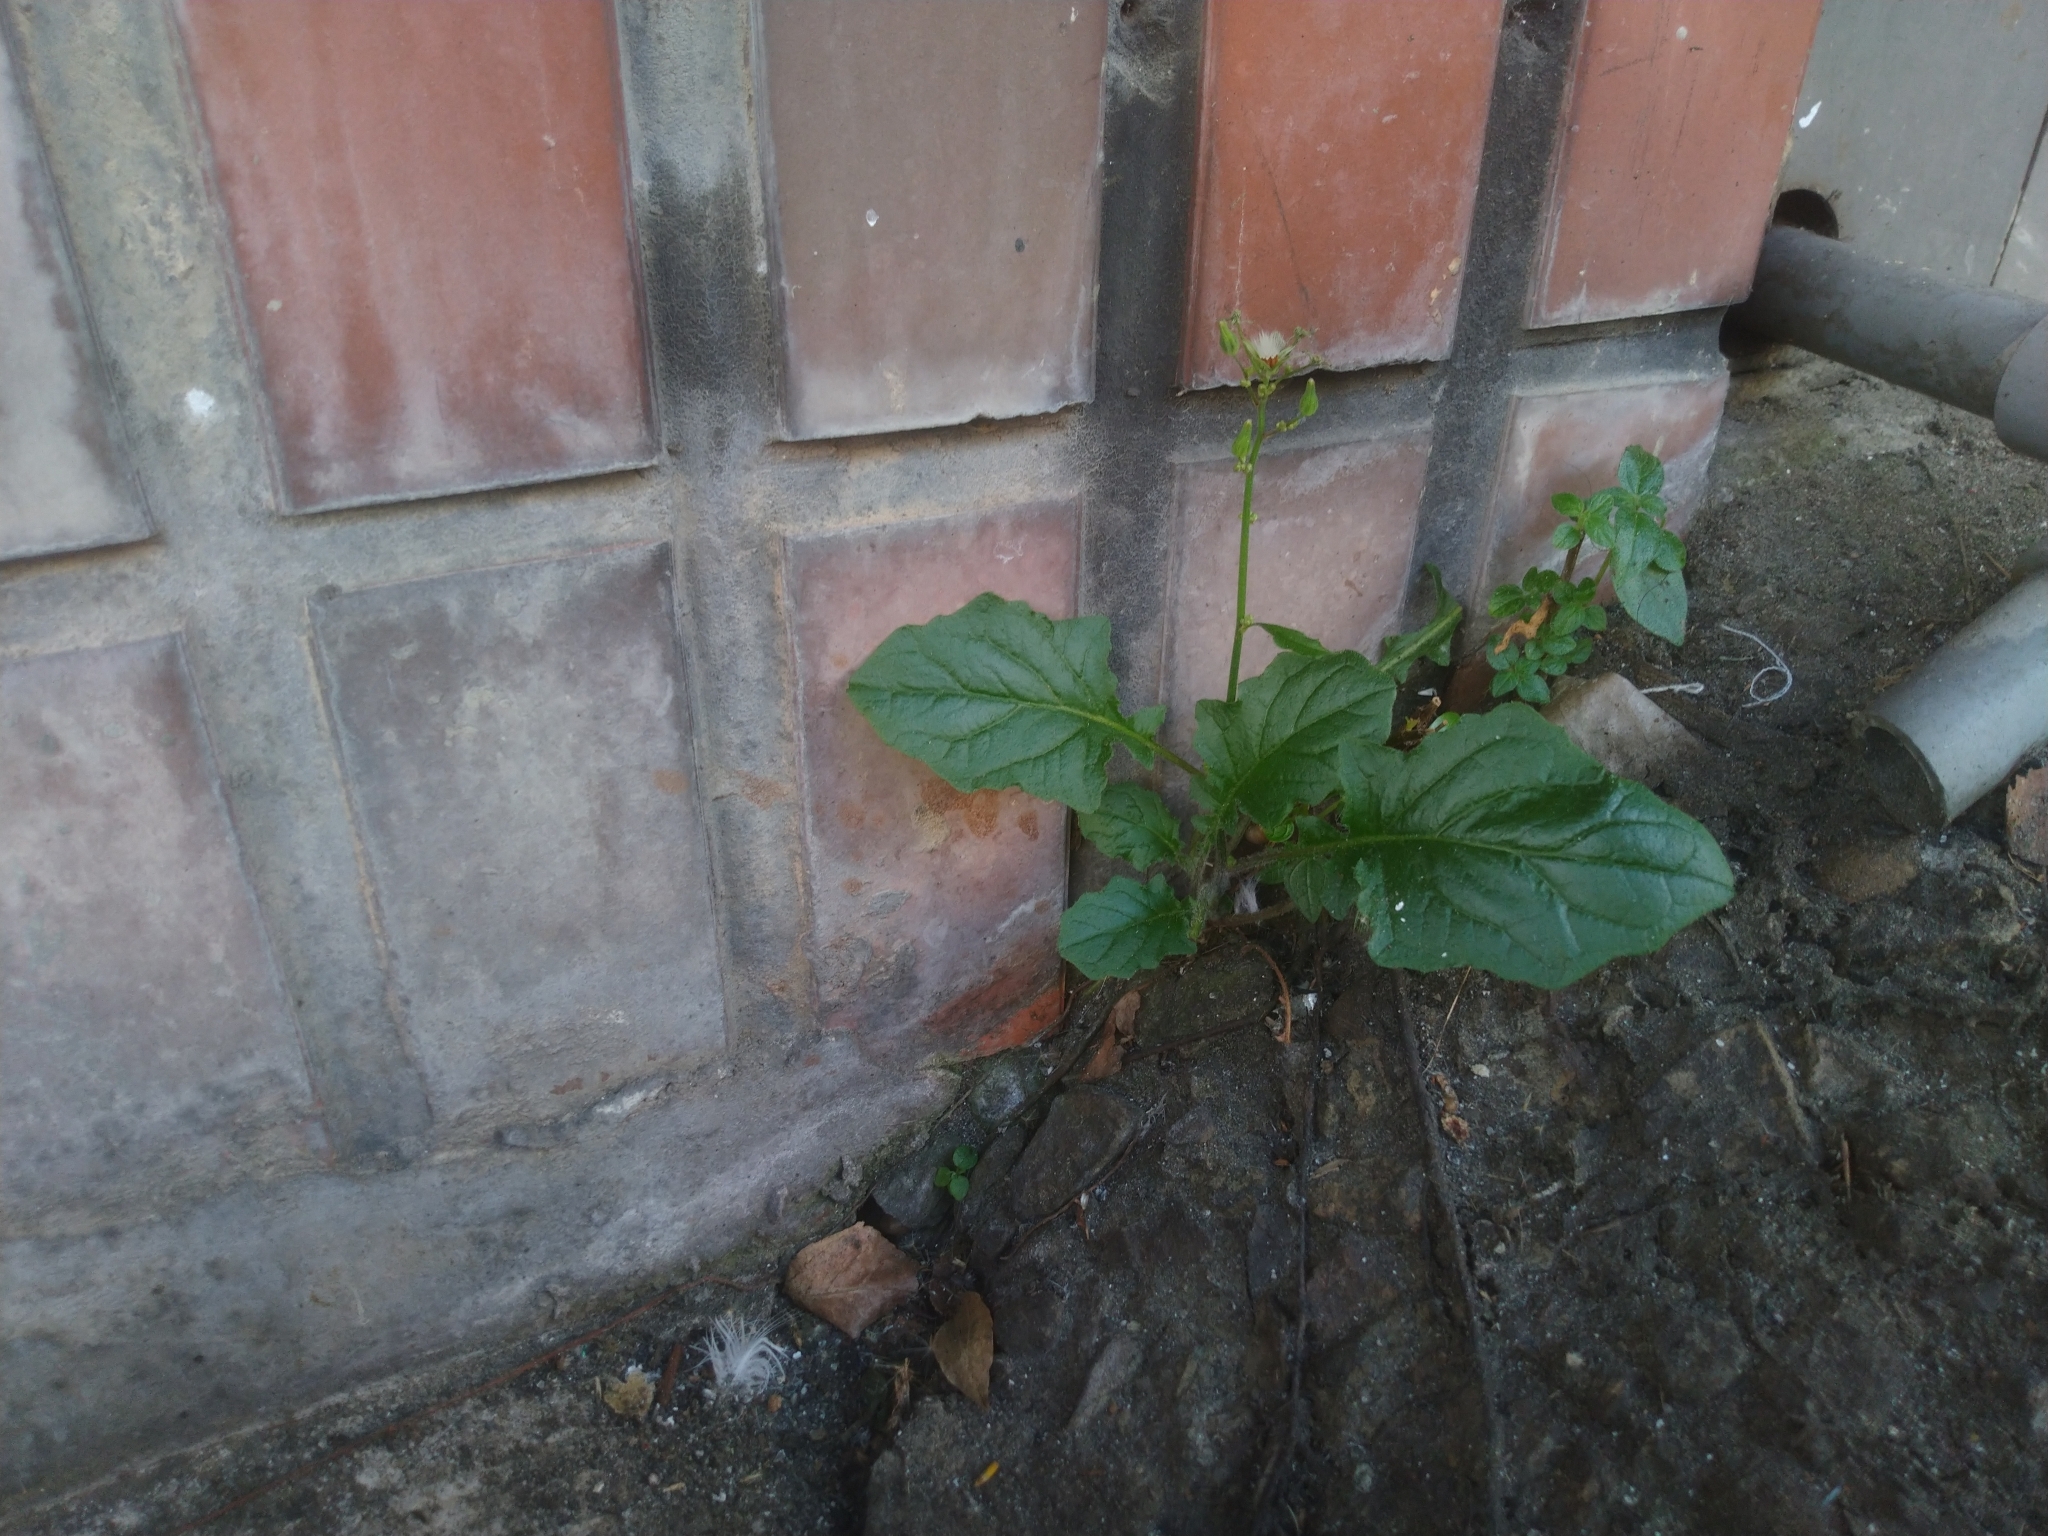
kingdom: Plantae
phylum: Tracheophyta
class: Magnoliopsida
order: Asterales
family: Asteraceae
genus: Youngia
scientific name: Youngia japonica
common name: Oriental false hawksbeard
